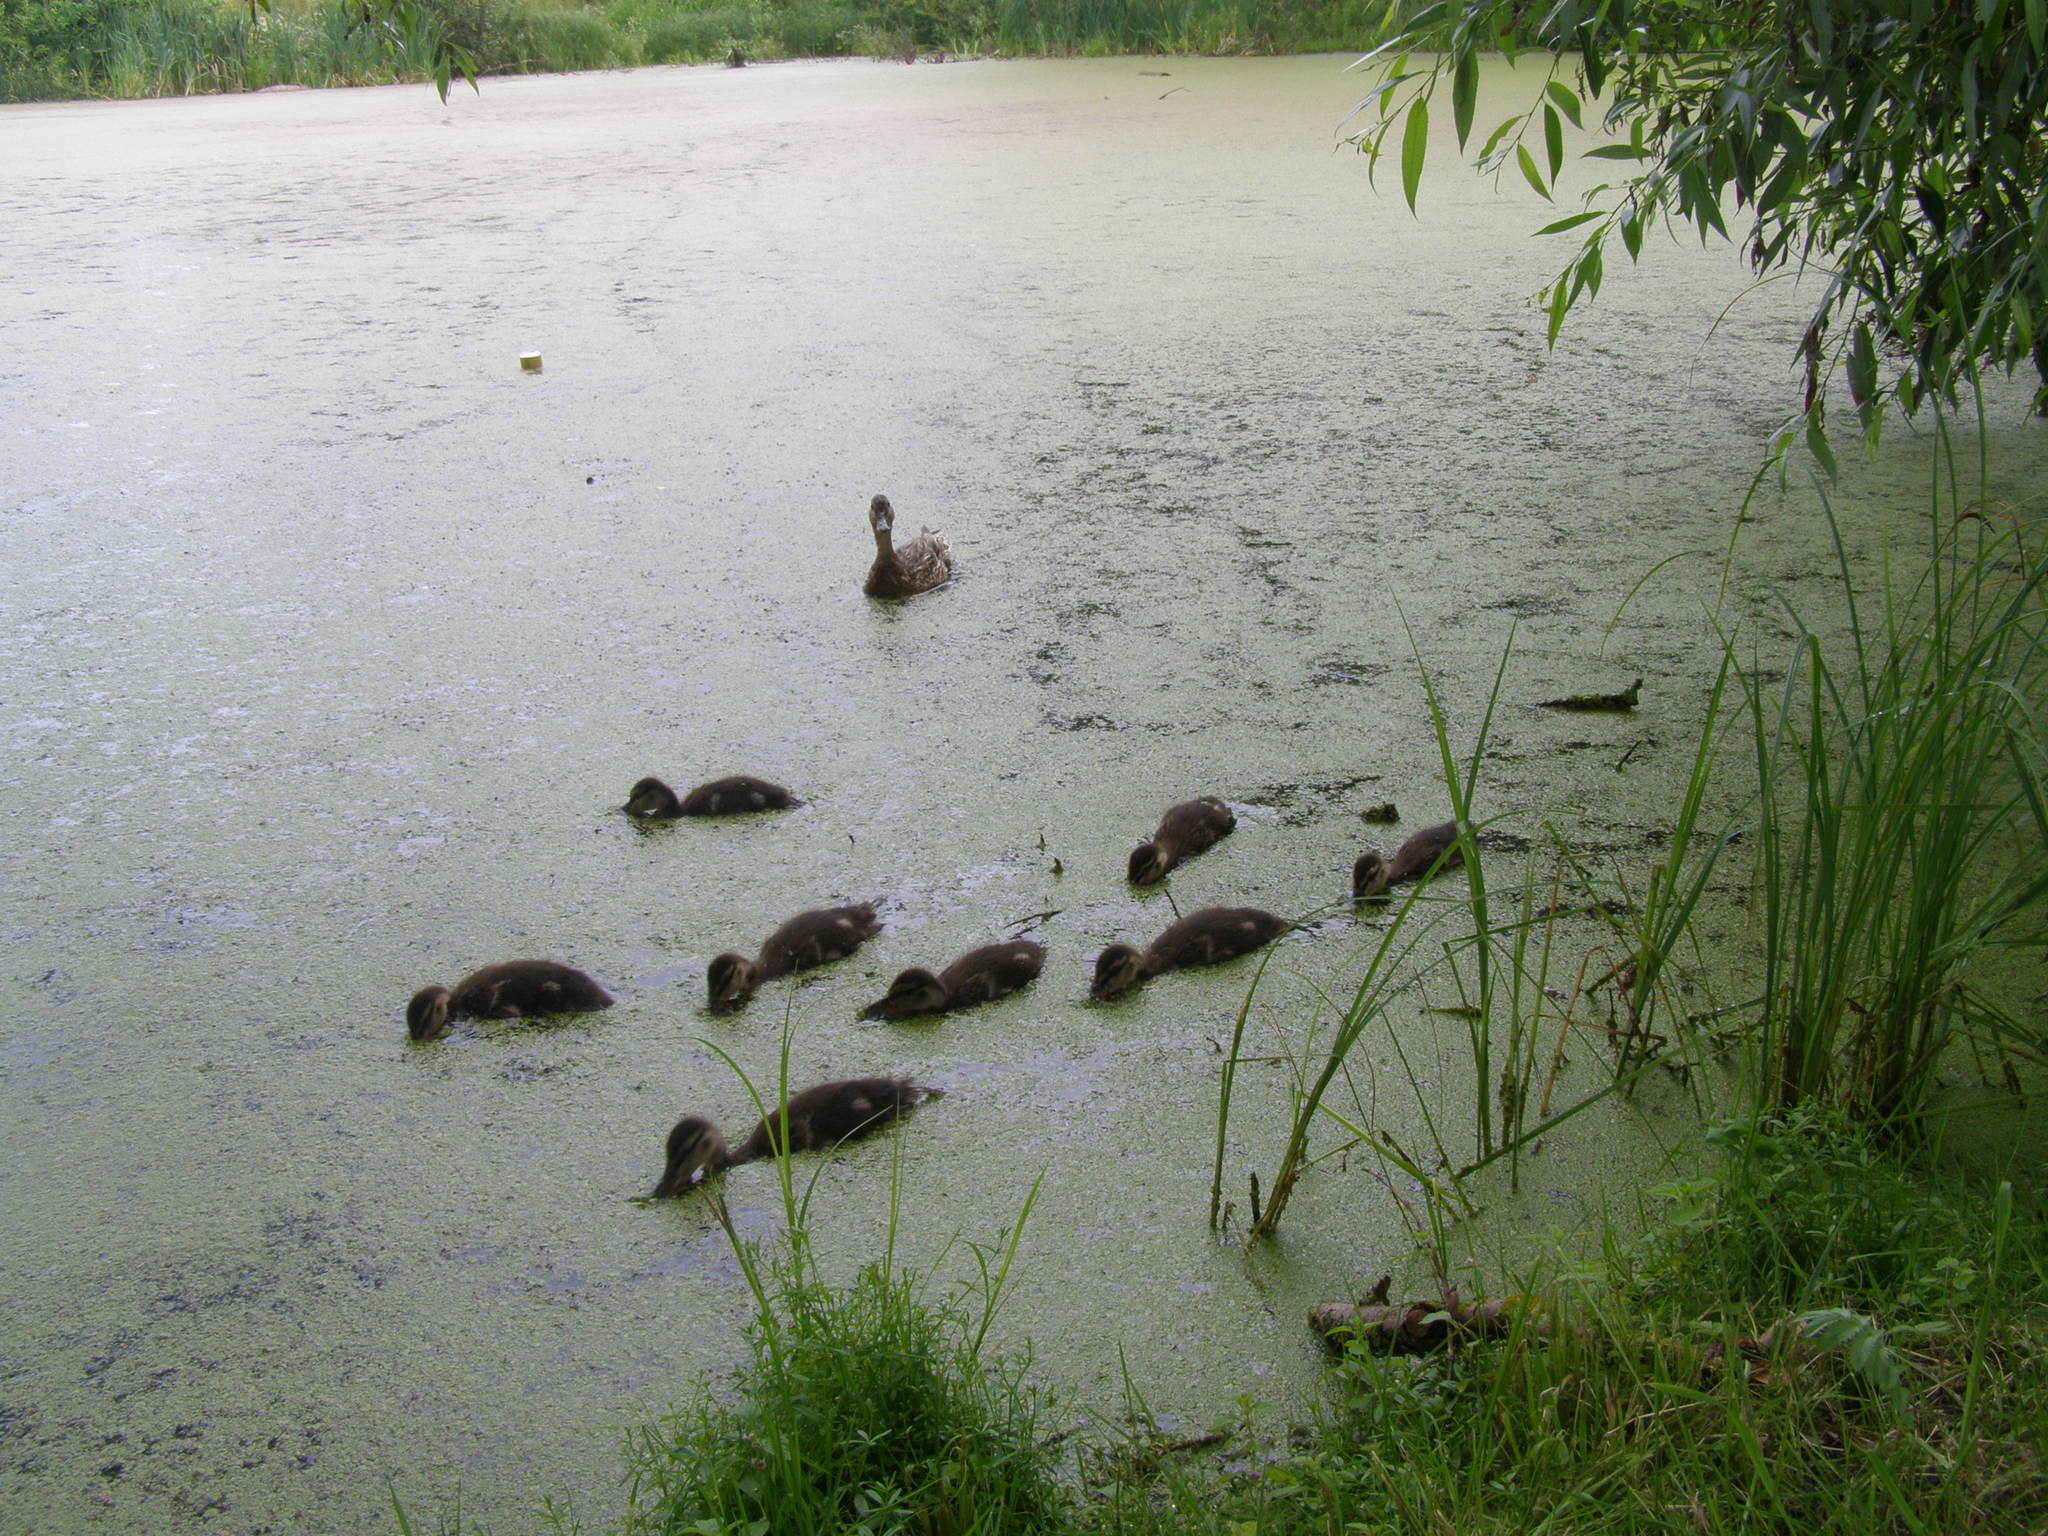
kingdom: Animalia
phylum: Chordata
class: Aves
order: Anseriformes
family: Anatidae
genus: Anas
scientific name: Anas platyrhynchos
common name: Mallard
